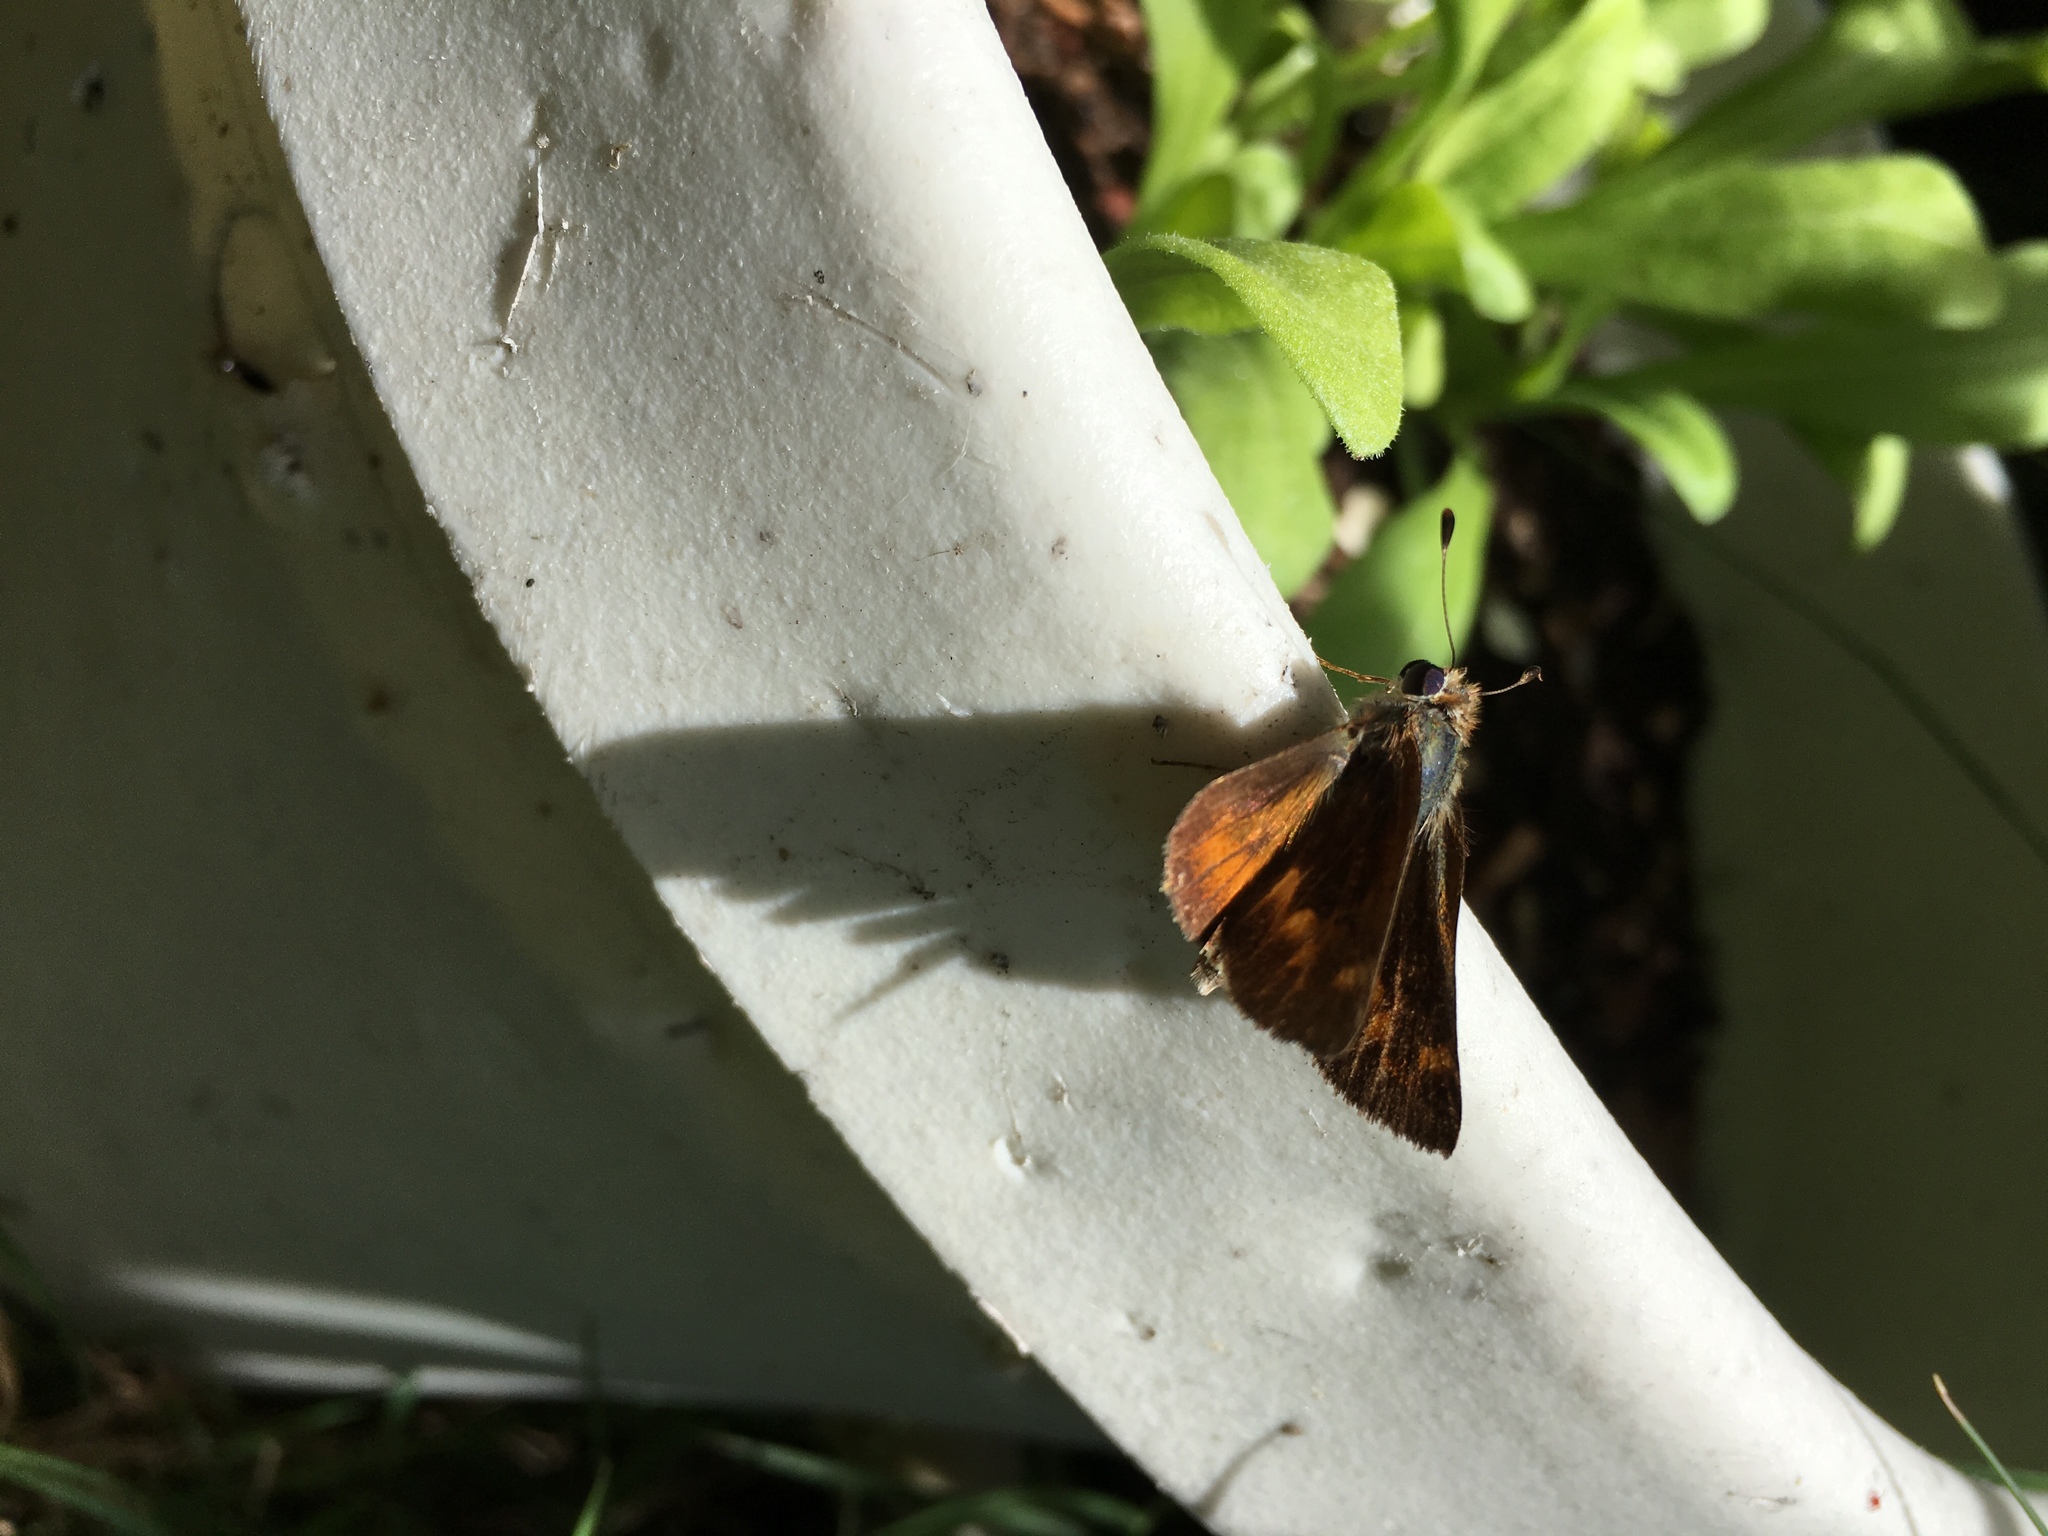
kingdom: Animalia
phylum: Arthropoda
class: Insecta
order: Lepidoptera
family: Hesperiidae
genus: Lon
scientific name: Lon melane
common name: Umber skipper
